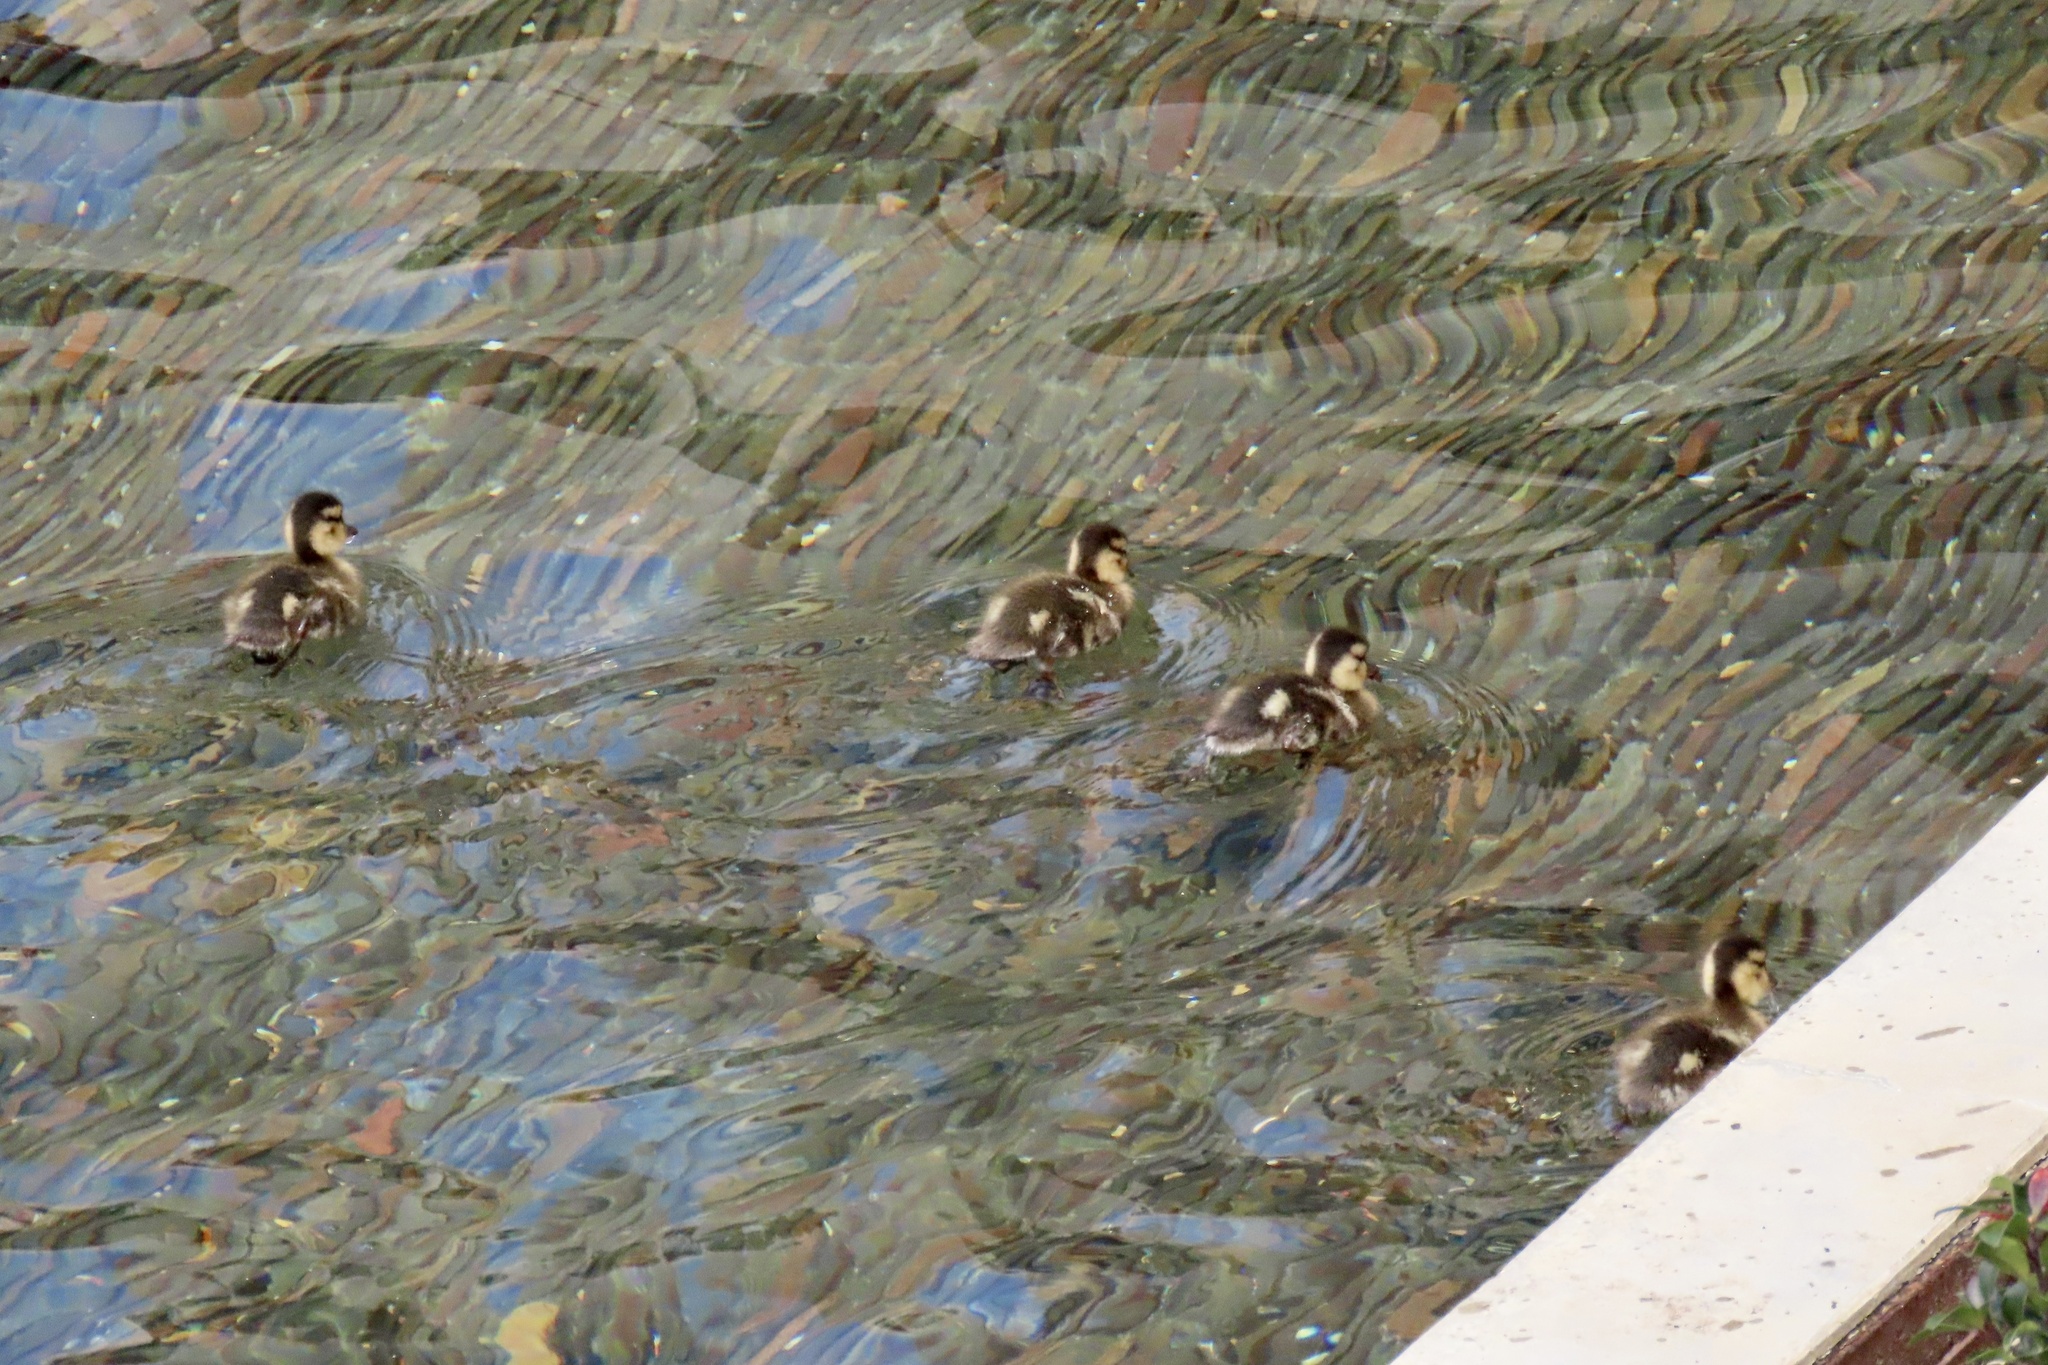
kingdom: Animalia
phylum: Chordata
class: Aves
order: Anseriformes
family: Anatidae
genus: Anas
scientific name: Anas platyrhynchos
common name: Mallard
